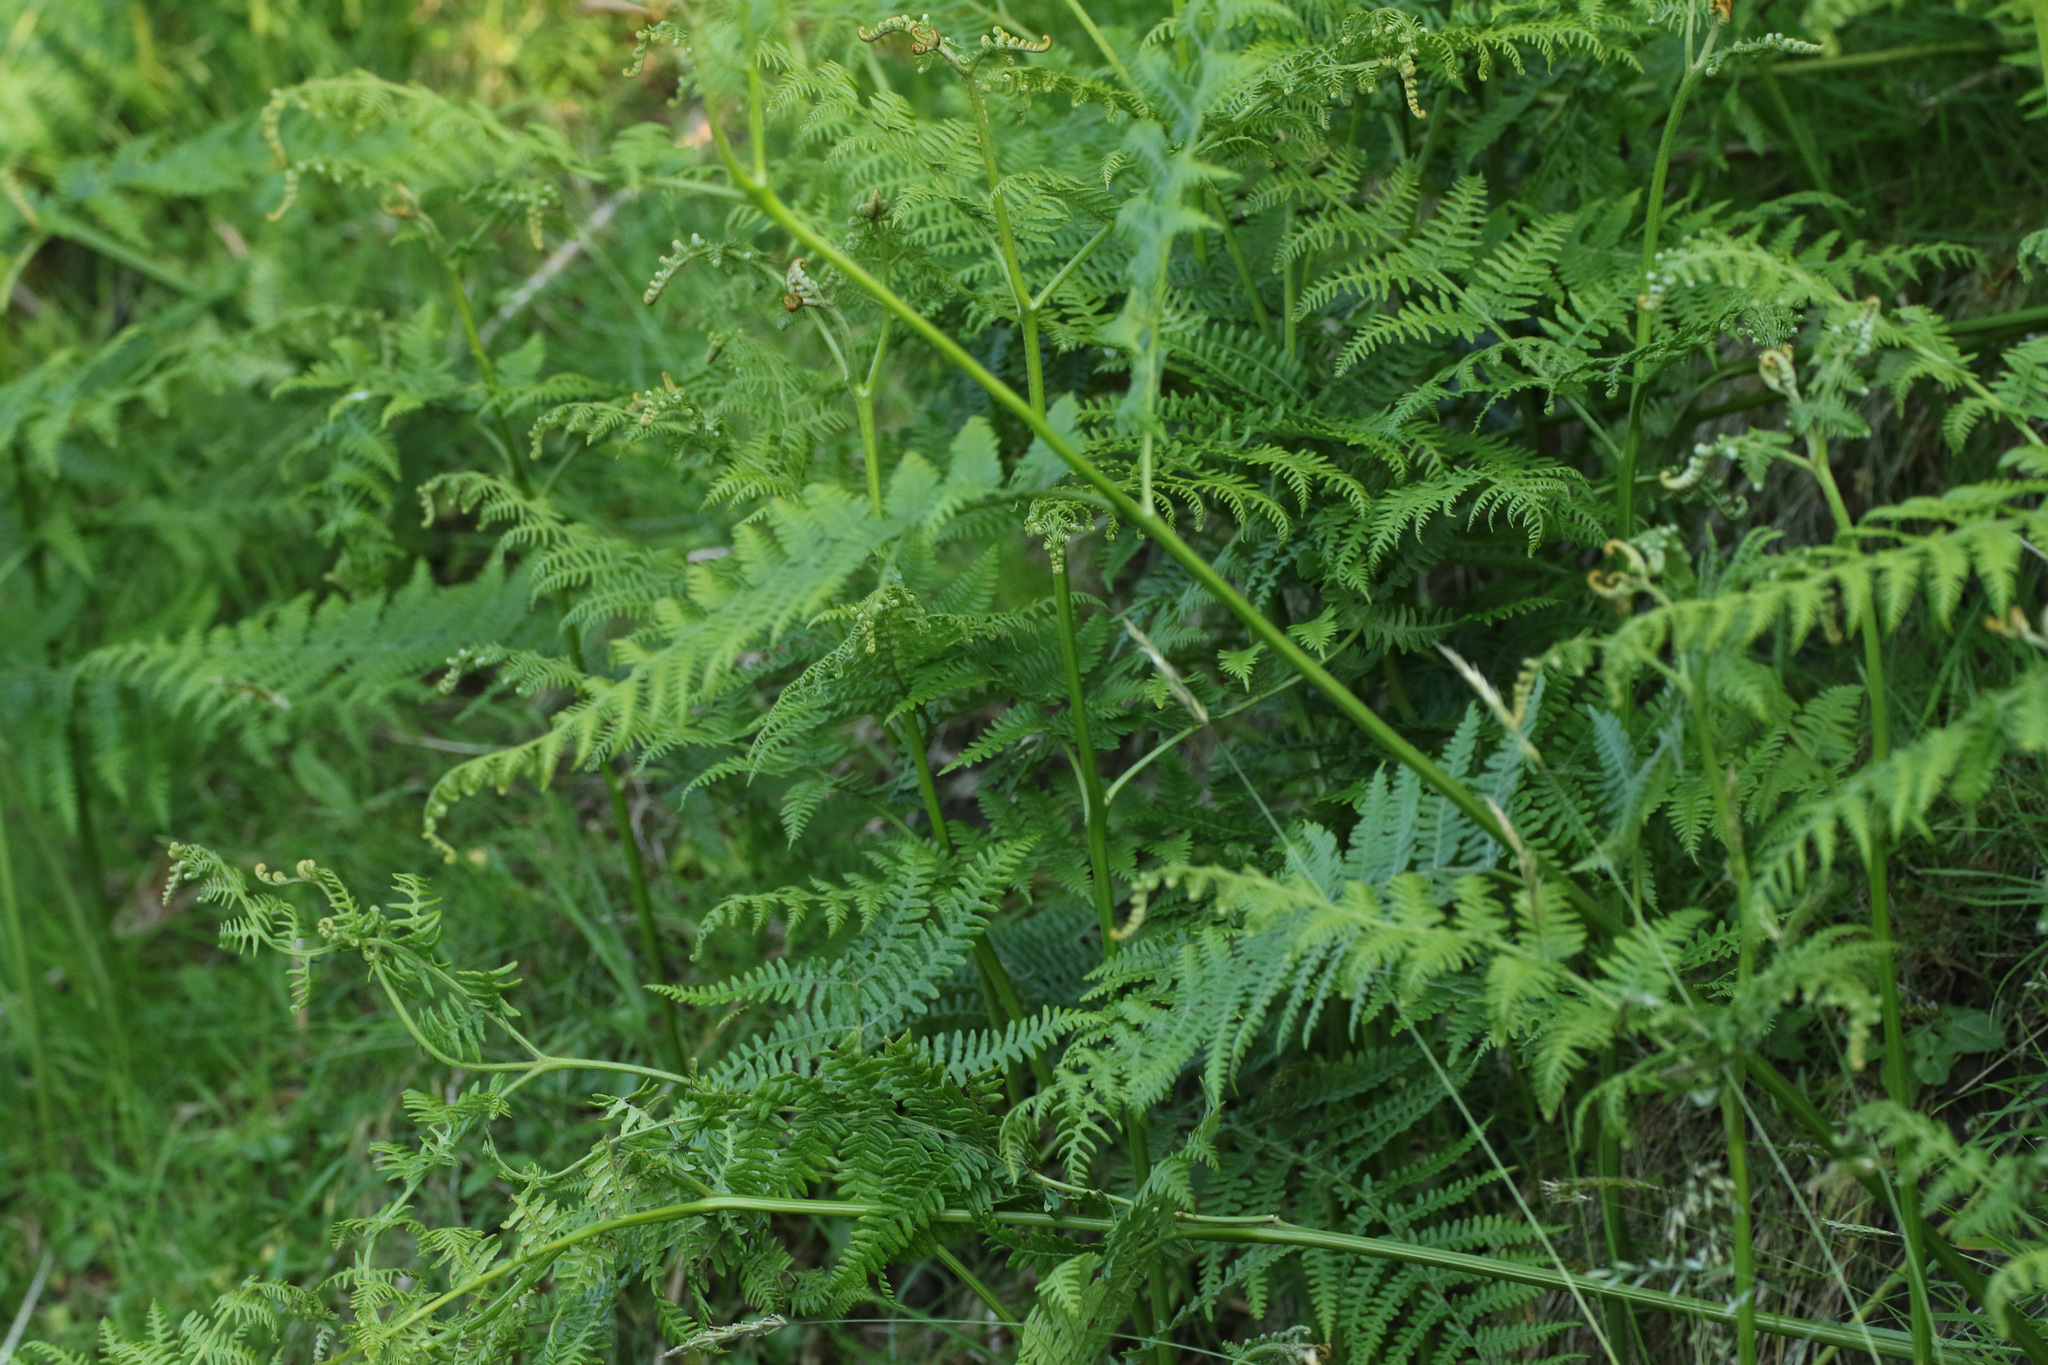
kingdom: Plantae
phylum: Tracheophyta
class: Polypodiopsida
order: Polypodiales
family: Dennstaedtiaceae
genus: Pteridium
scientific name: Pteridium aquilinum
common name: Bracken
